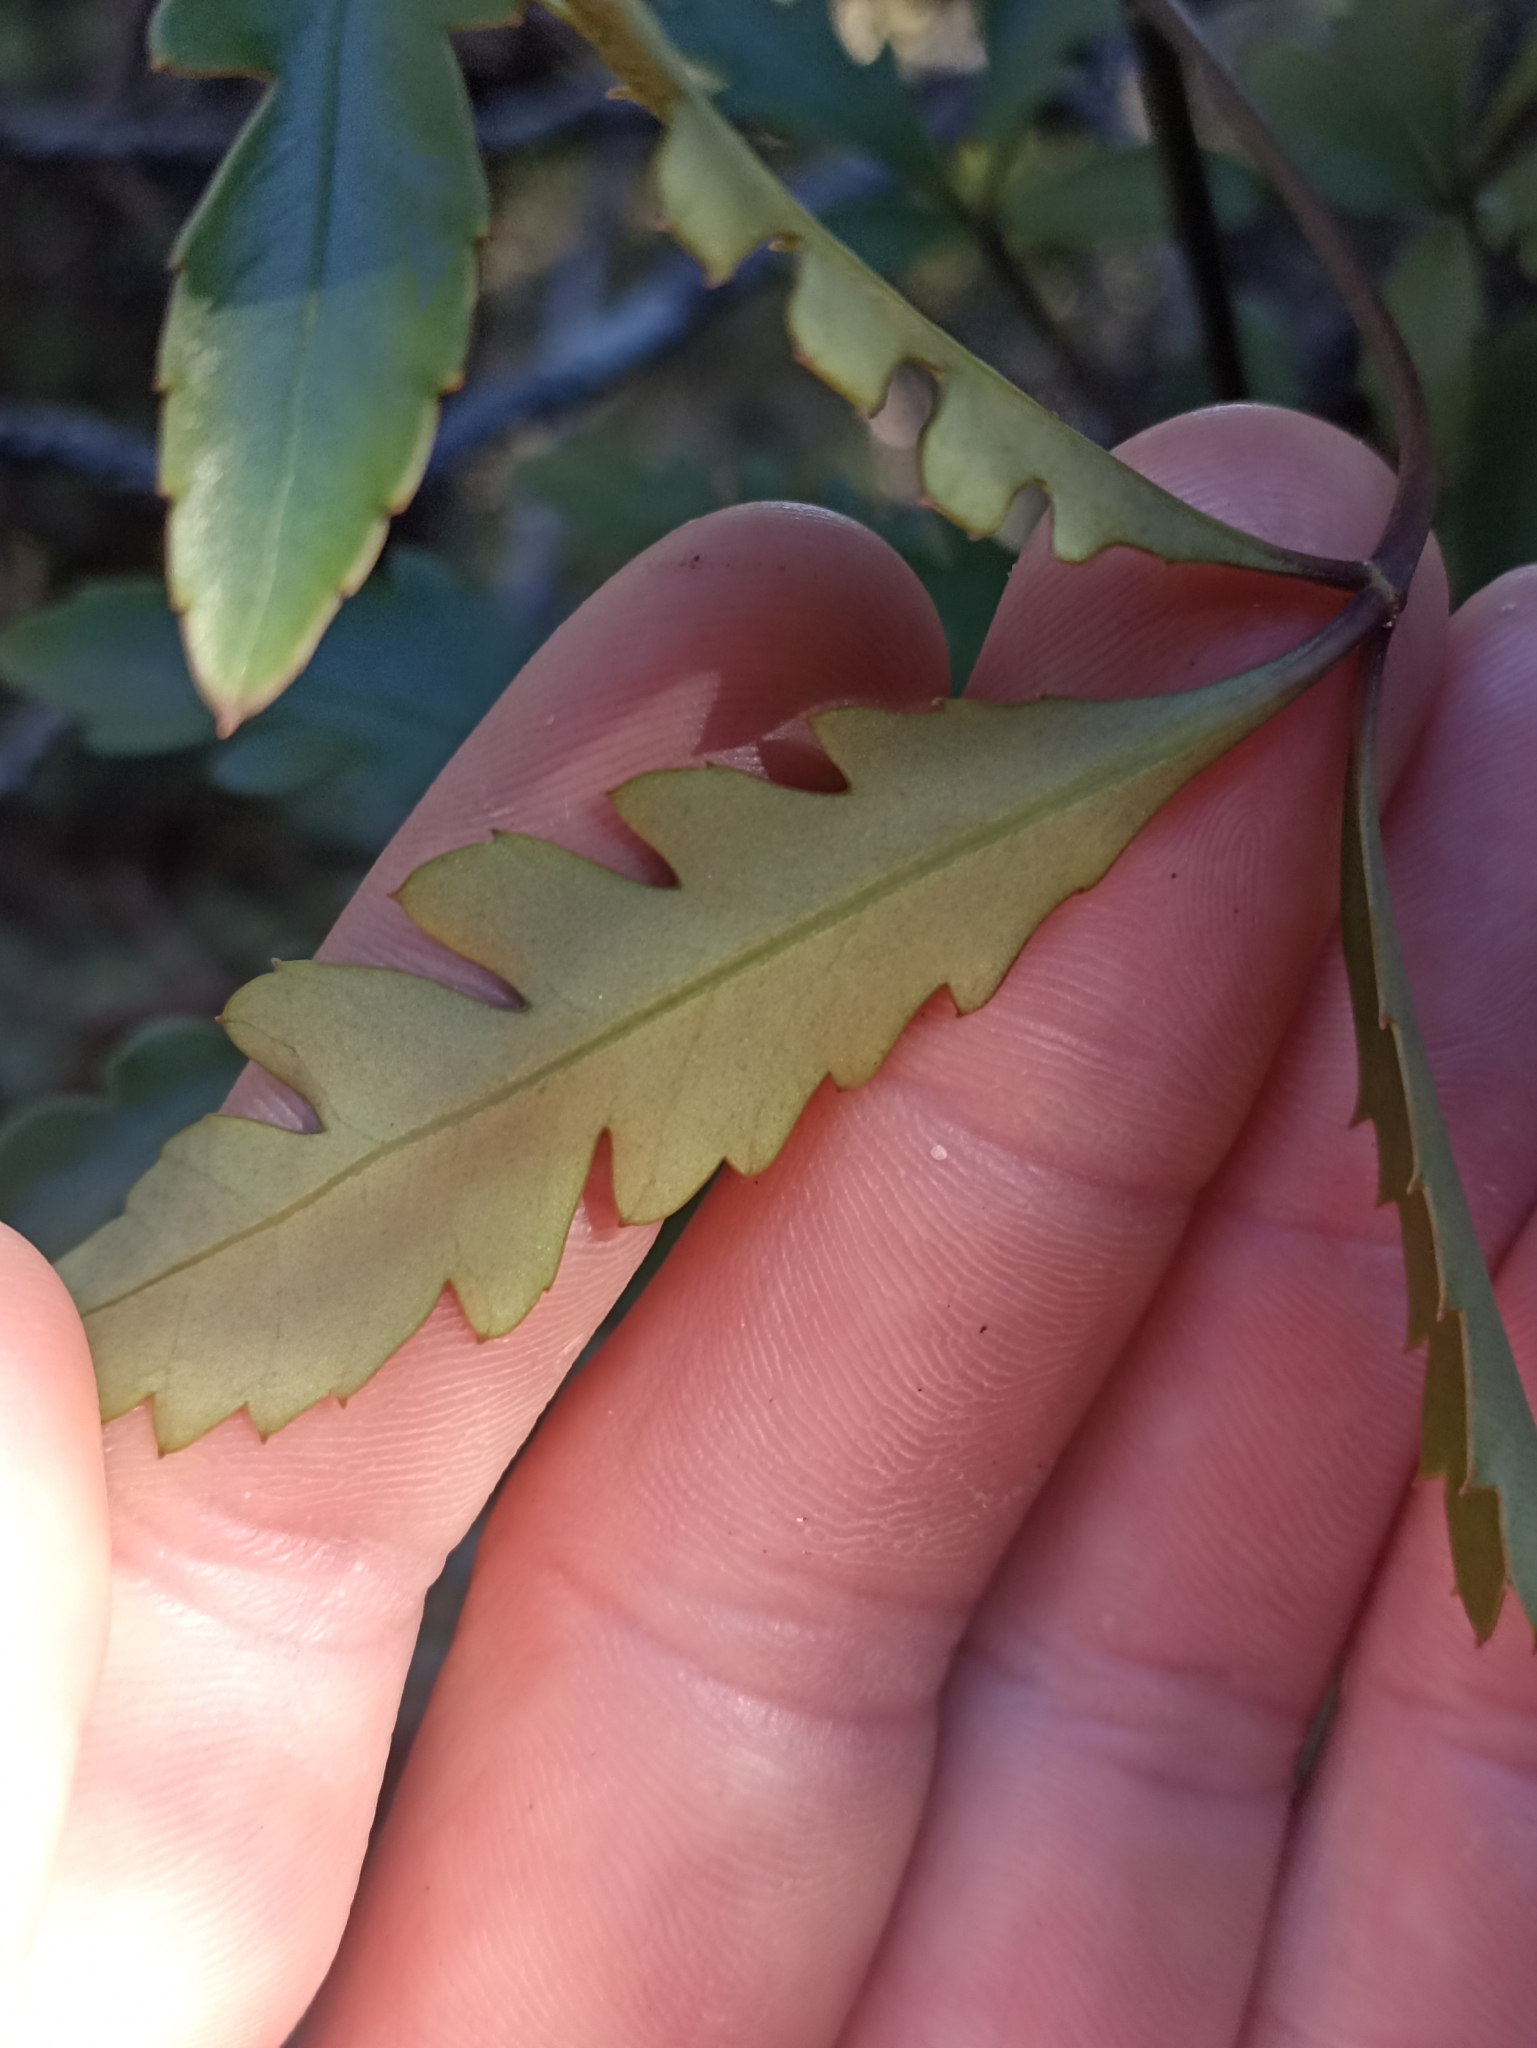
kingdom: Plantae
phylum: Tracheophyta
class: Magnoliopsida
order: Apiales
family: Araliaceae
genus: Raukaua
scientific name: Raukaua simplex
